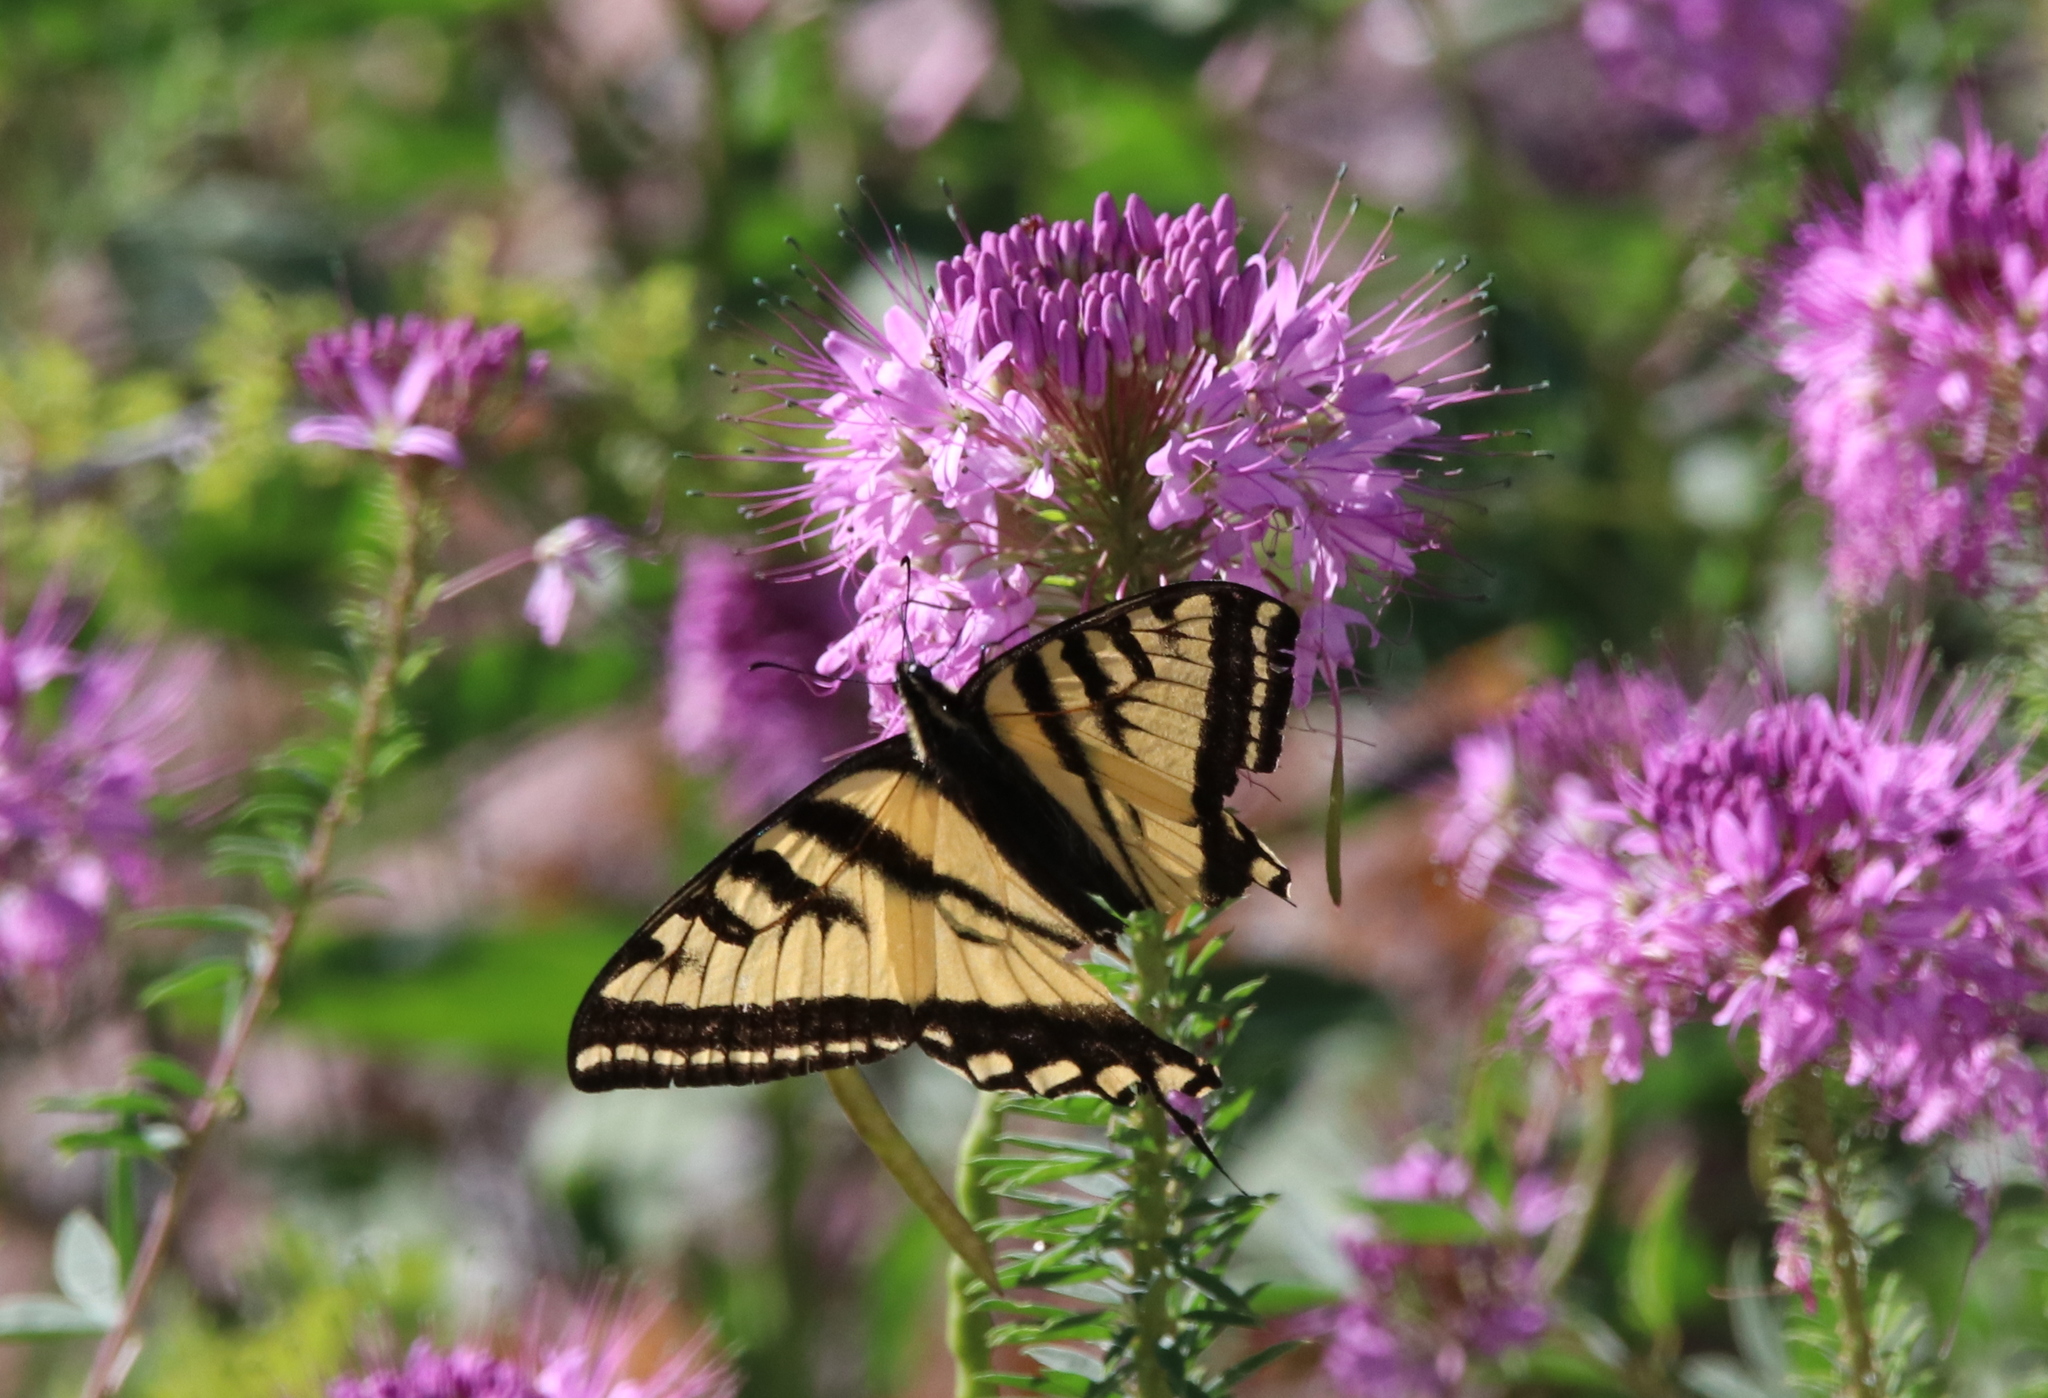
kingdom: Animalia
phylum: Arthropoda
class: Insecta
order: Lepidoptera
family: Papilionidae
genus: Papilio
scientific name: Papilio rutulus
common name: Western tiger swallowtail
